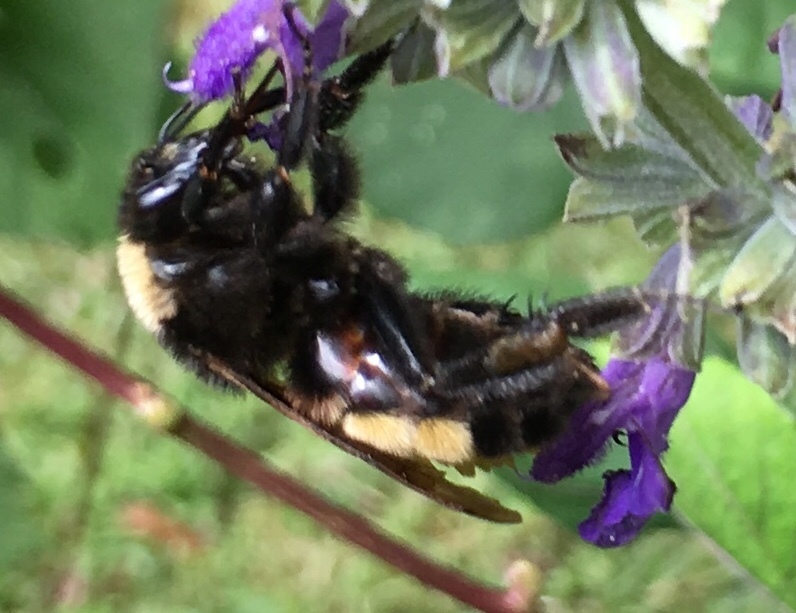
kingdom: Animalia
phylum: Arthropoda
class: Insecta
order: Hymenoptera
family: Apidae
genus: Bombus
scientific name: Bombus pensylvanicus
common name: Bumble bee
